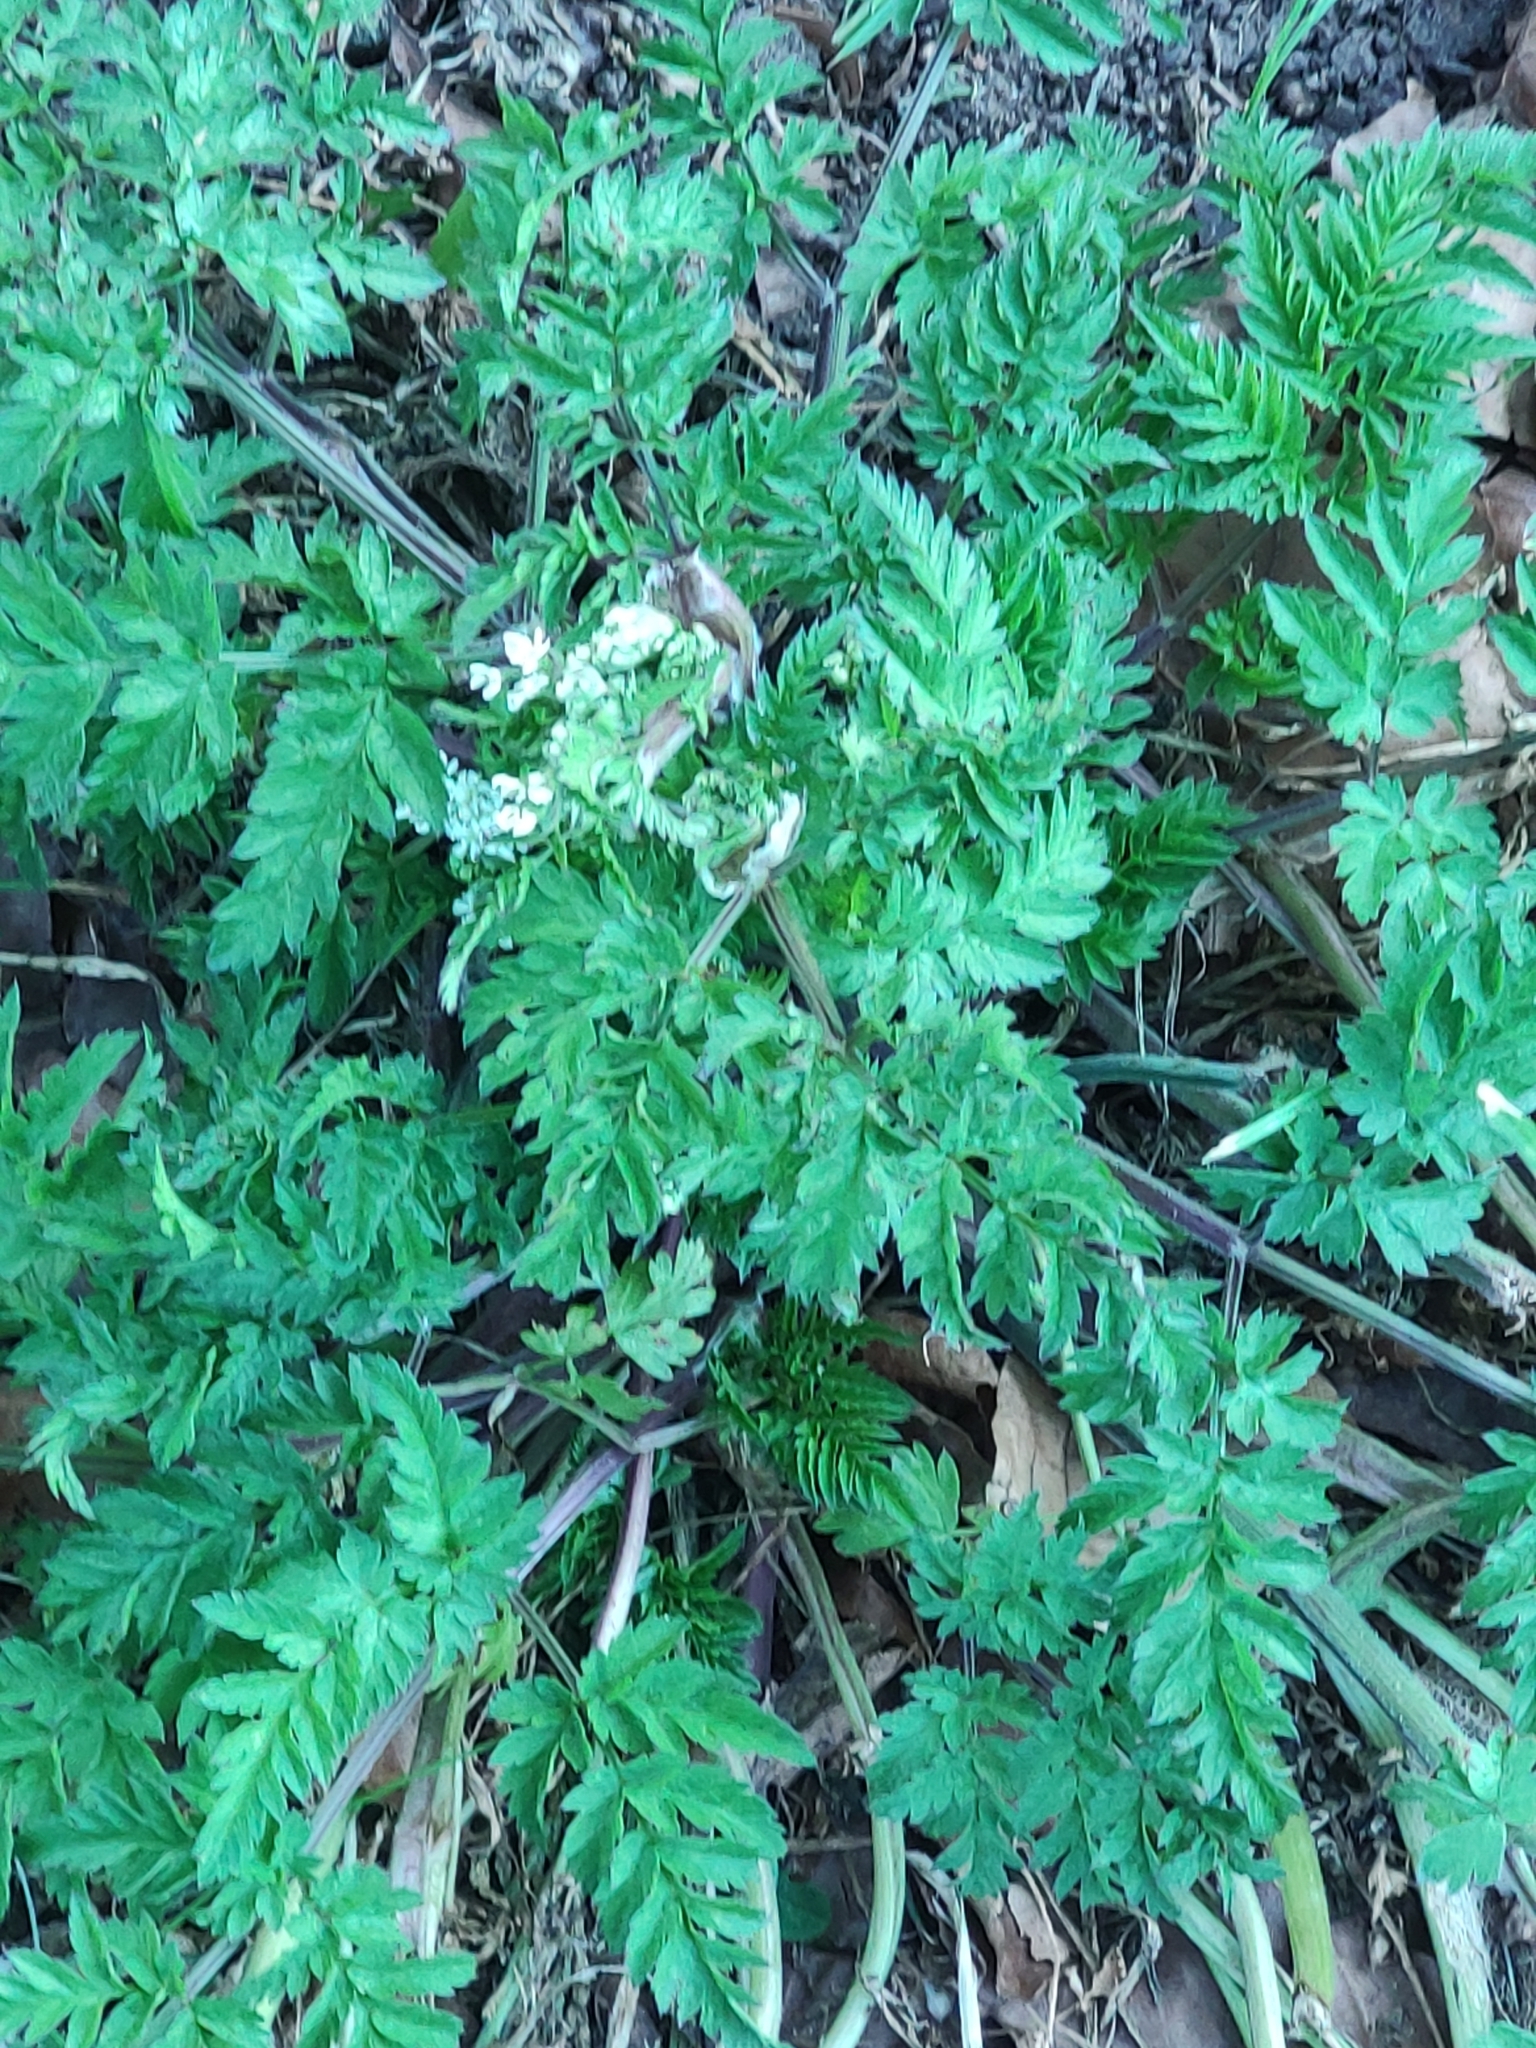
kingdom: Plantae
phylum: Tracheophyta
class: Magnoliopsida
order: Apiales
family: Apiaceae
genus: Anthriscus
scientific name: Anthriscus sylvestris
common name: Cow parsley
